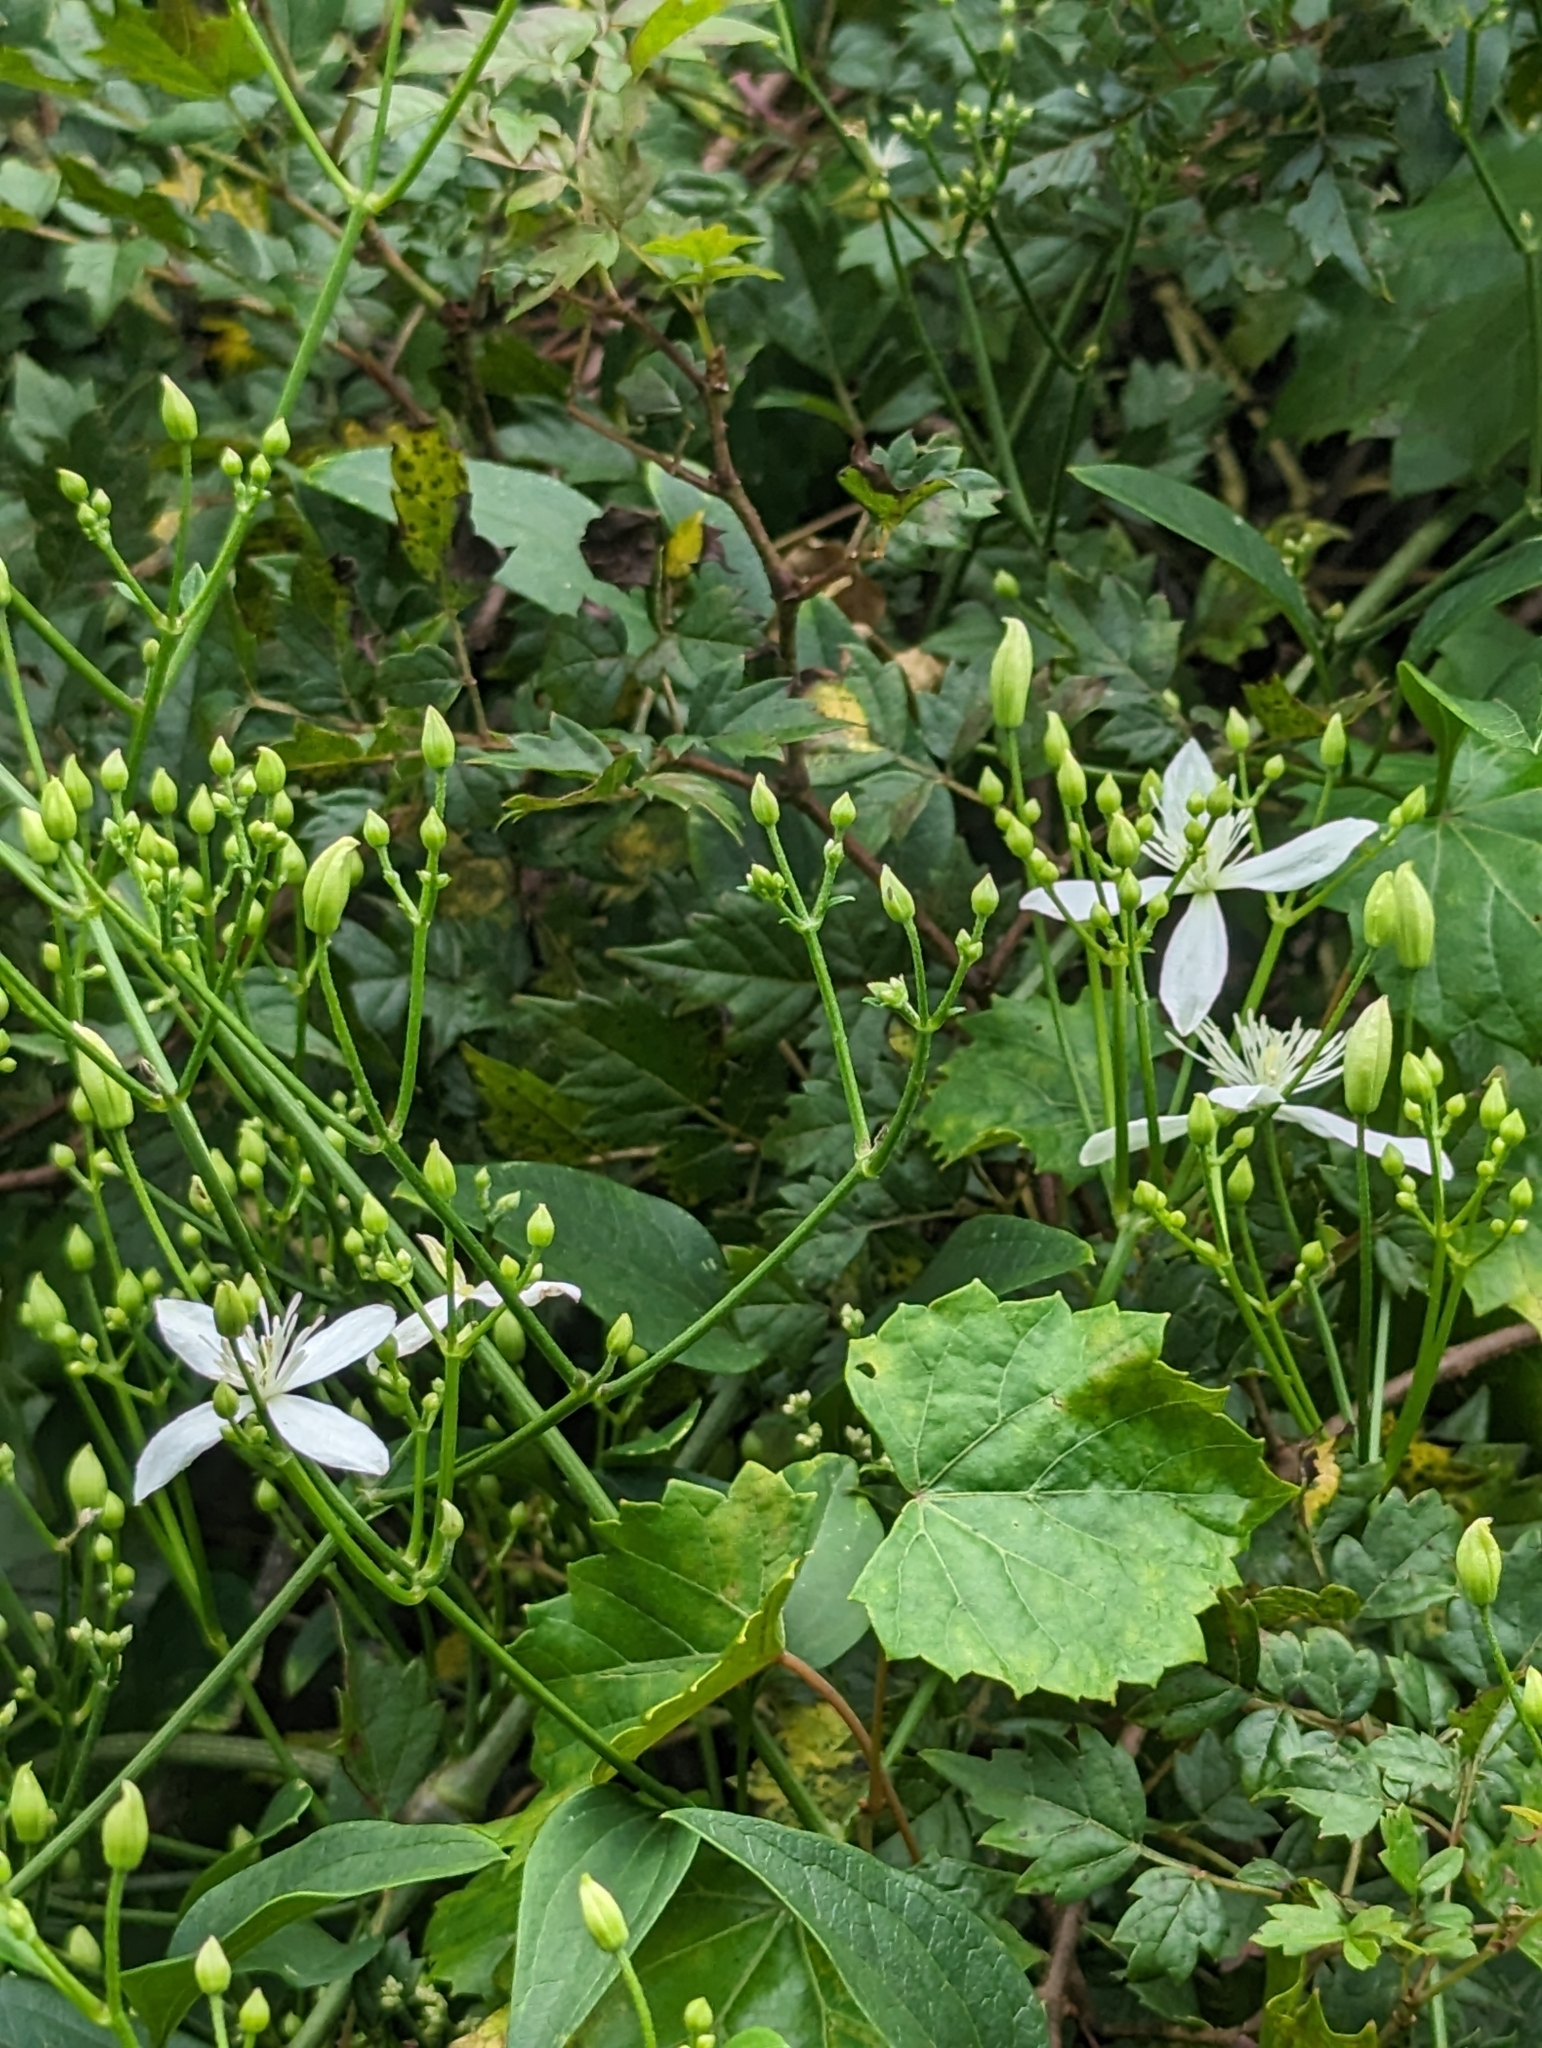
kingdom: Plantae
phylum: Tracheophyta
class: Magnoliopsida
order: Ranunculales
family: Ranunculaceae
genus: Clematis
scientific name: Clematis terniflora
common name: Sweet autumn clematis
